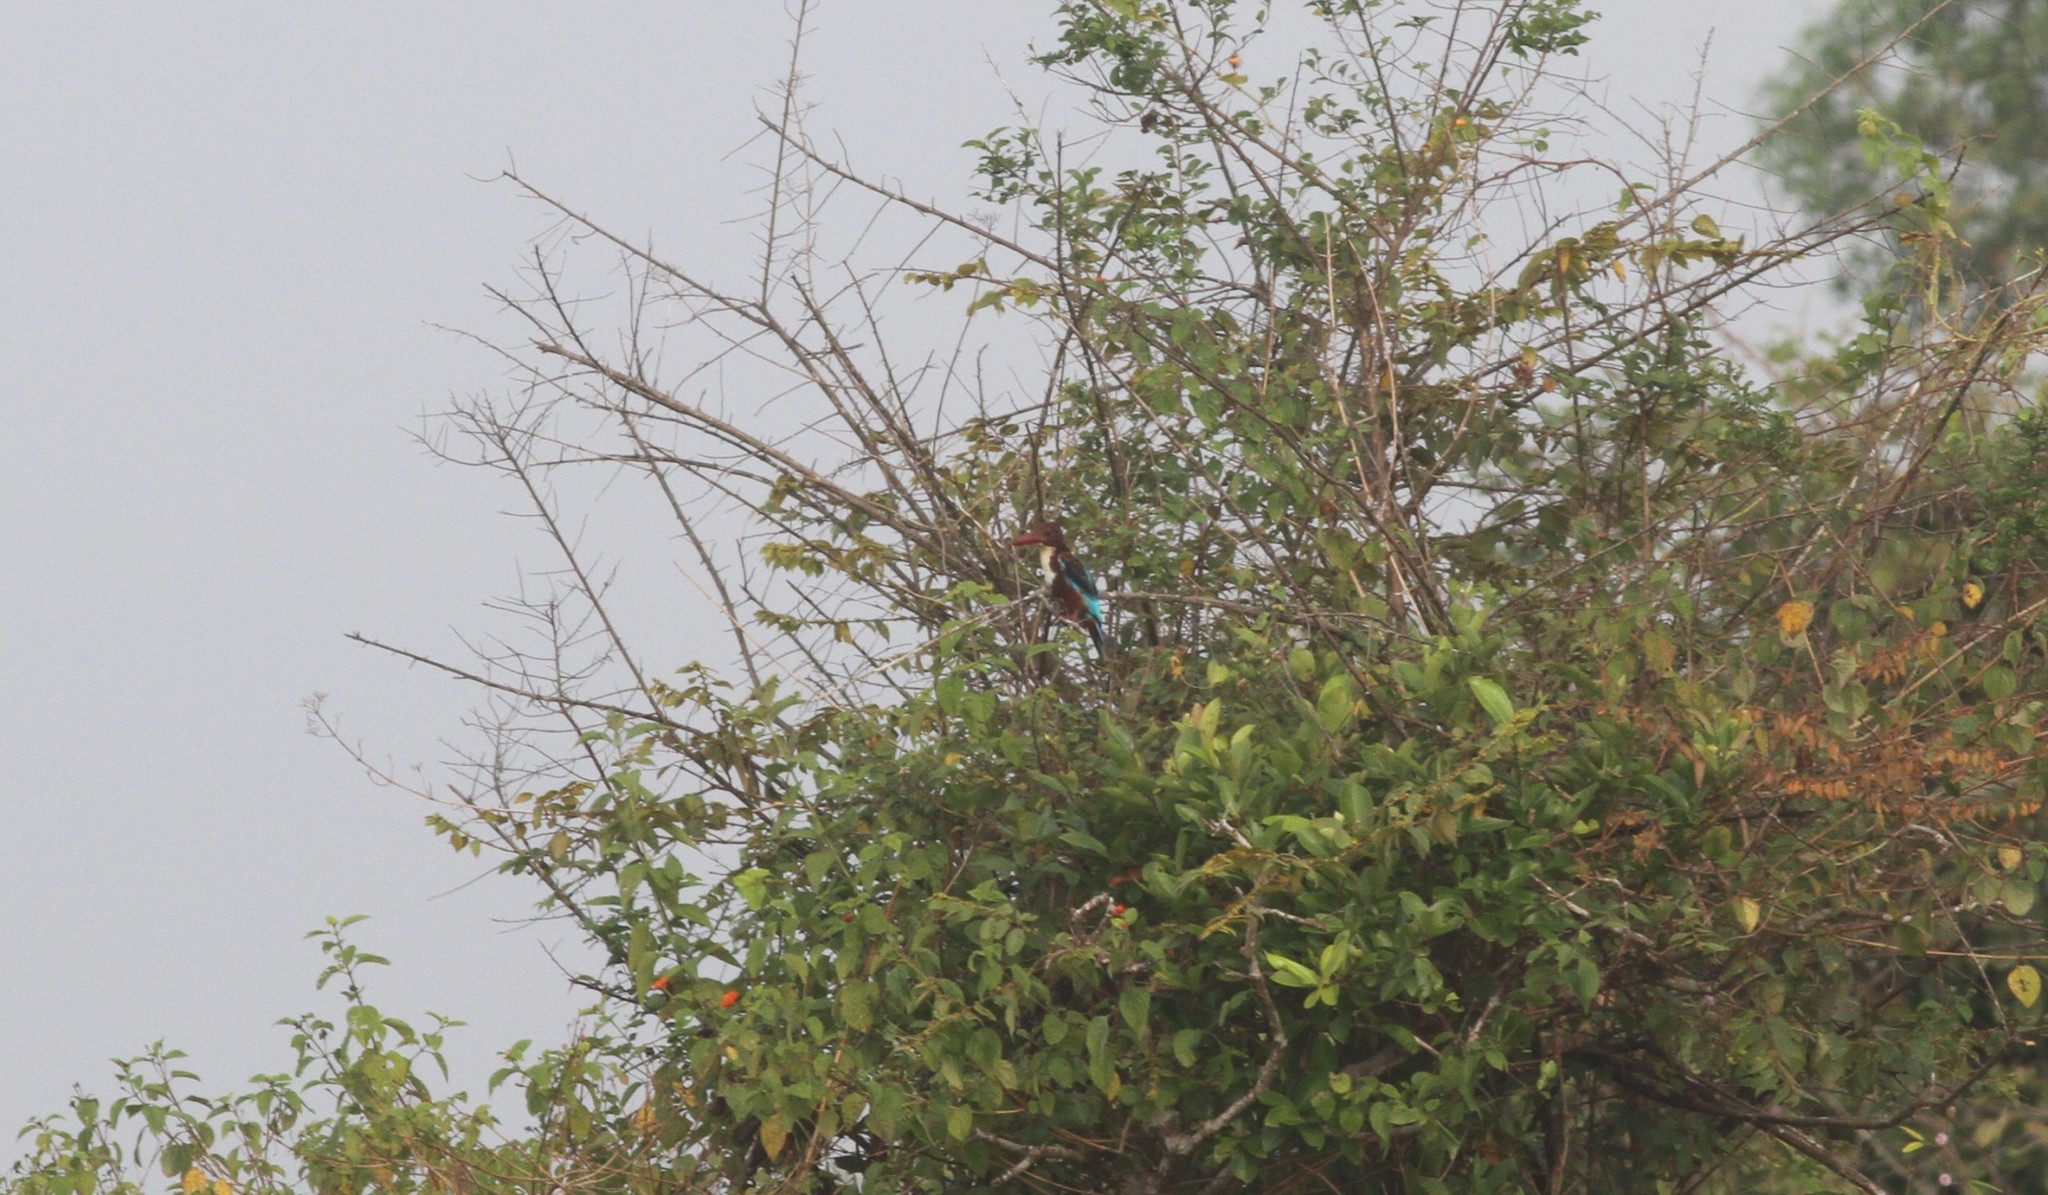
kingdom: Animalia
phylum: Chordata
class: Aves
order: Coraciiformes
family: Alcedinidae
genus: Halcyon
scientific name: Halcyon smyrnensis
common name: White-throated kingfisher
